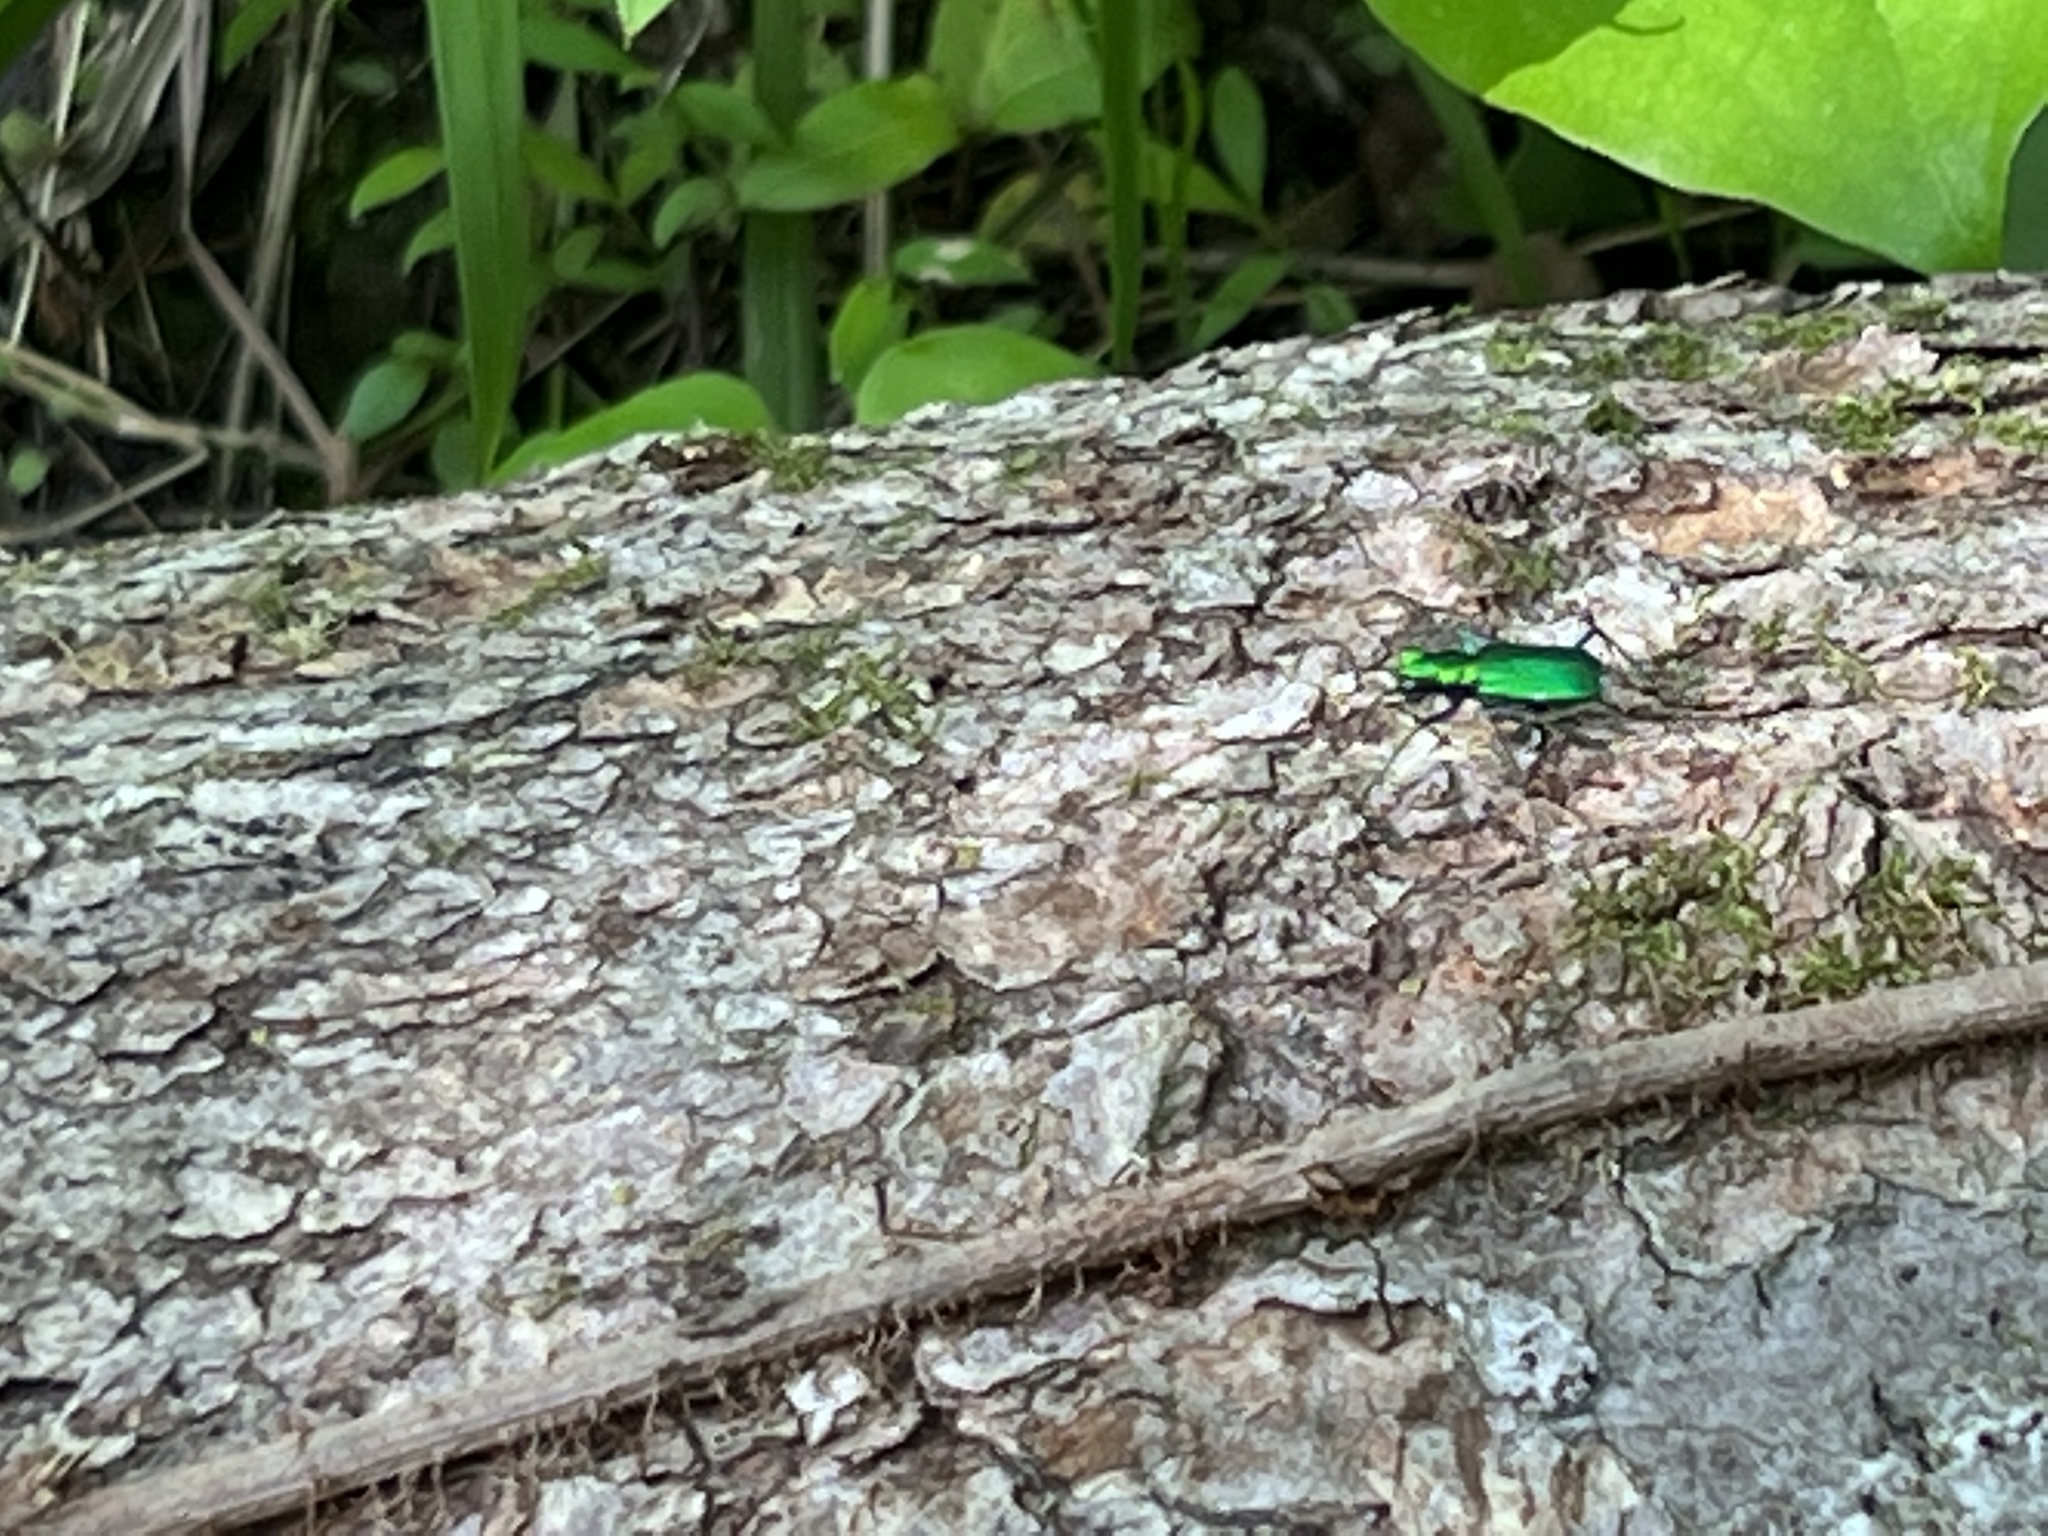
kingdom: Animalia
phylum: Arthropoda
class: Insecta
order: Coleoptera
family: Carabidae
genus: Cicindela
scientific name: Cicindela sexguttata
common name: Six-spotted tiger beetle
